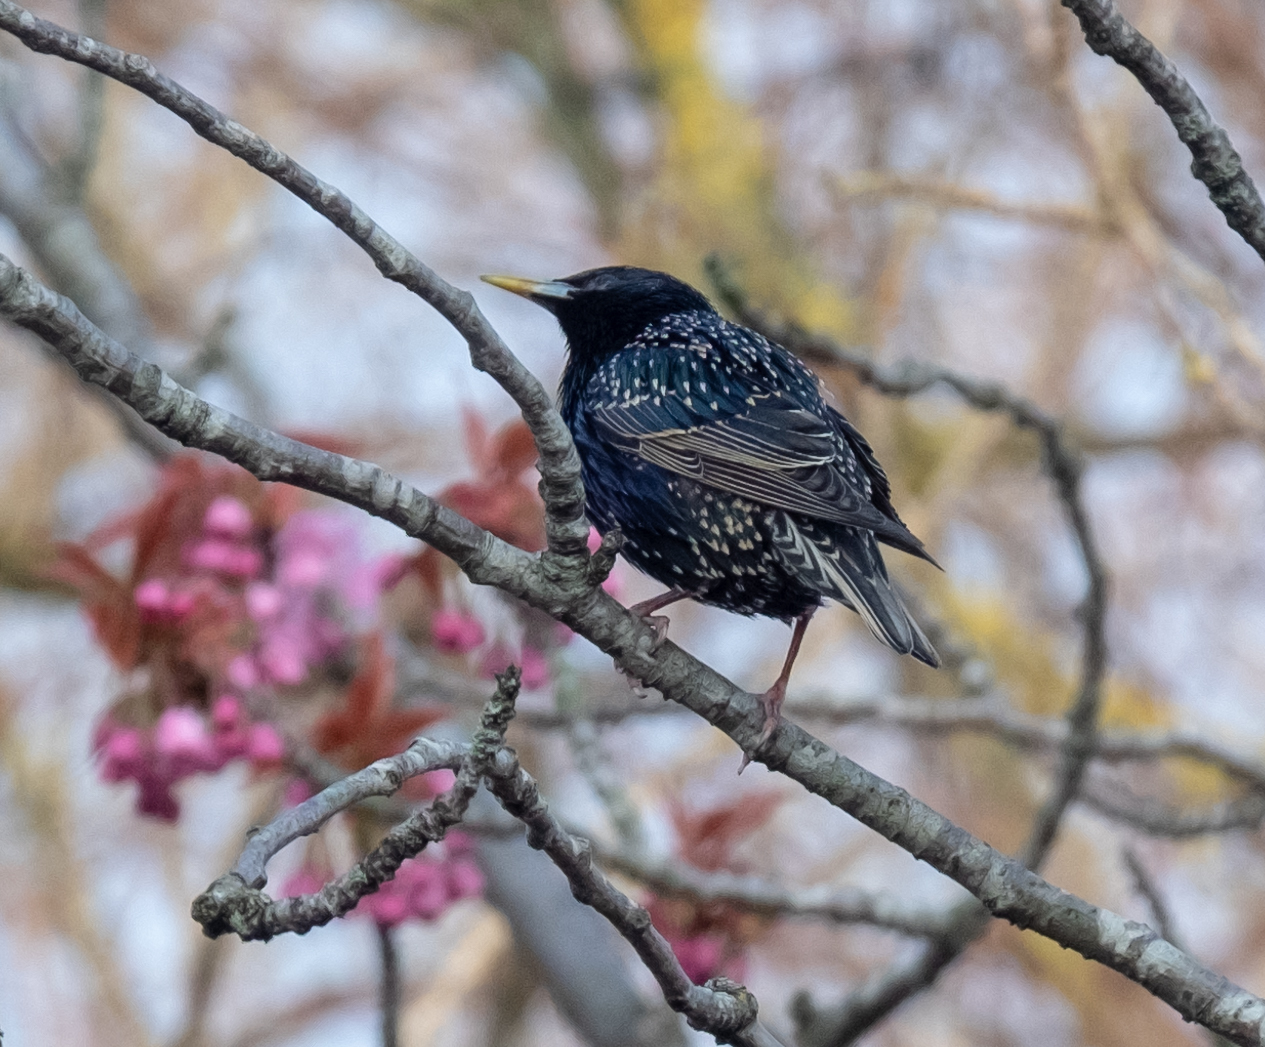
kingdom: Animalia
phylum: Chordata
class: Aves
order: Passeriformes
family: Sturnidae
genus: Sturnus
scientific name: Sturnus vulgaris
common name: Common starling
